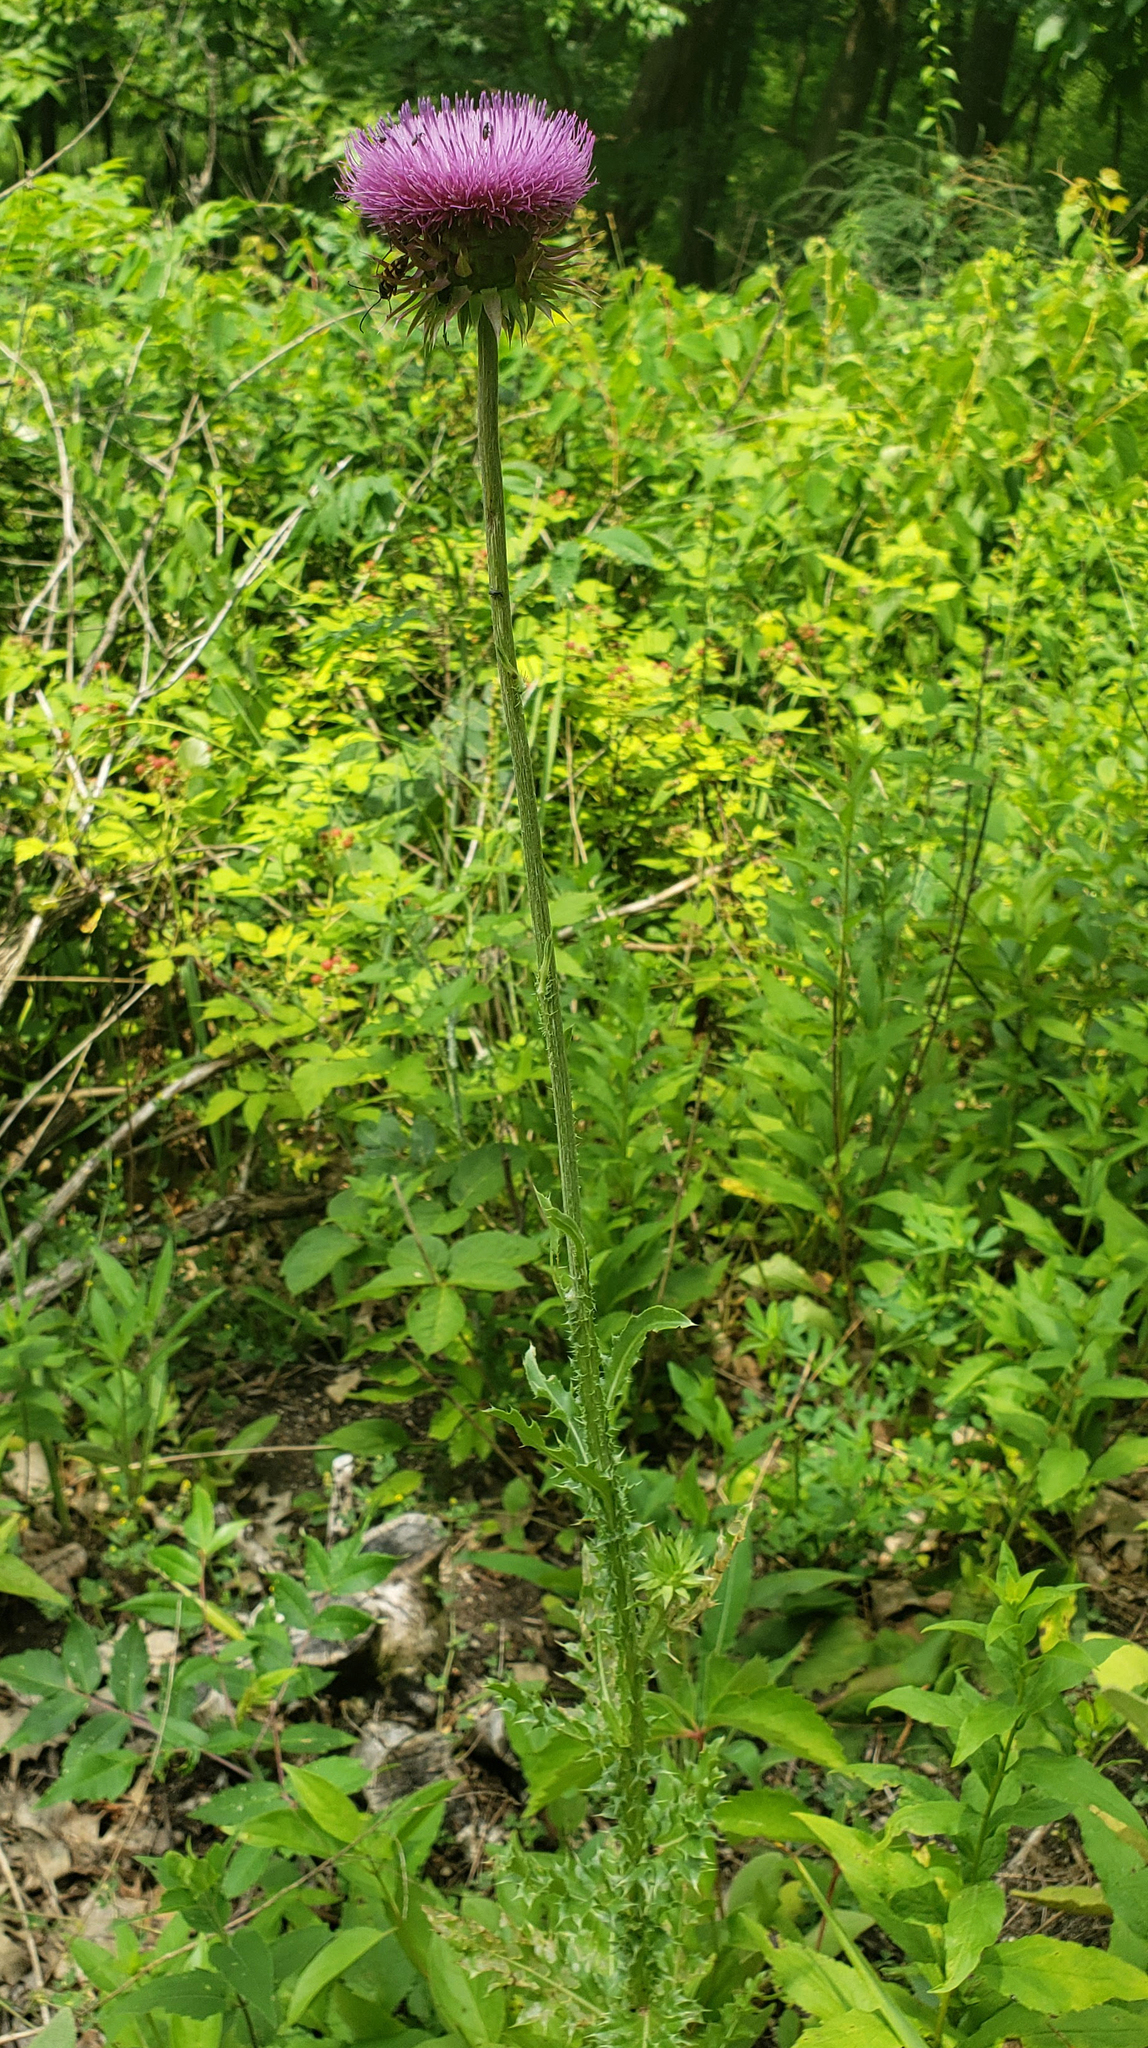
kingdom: Plantae
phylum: Tracheophyta
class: Magnoliopsida
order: Asterales
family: Asteraceae
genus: Carduus
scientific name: Carduus nutans
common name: Musk thistle
